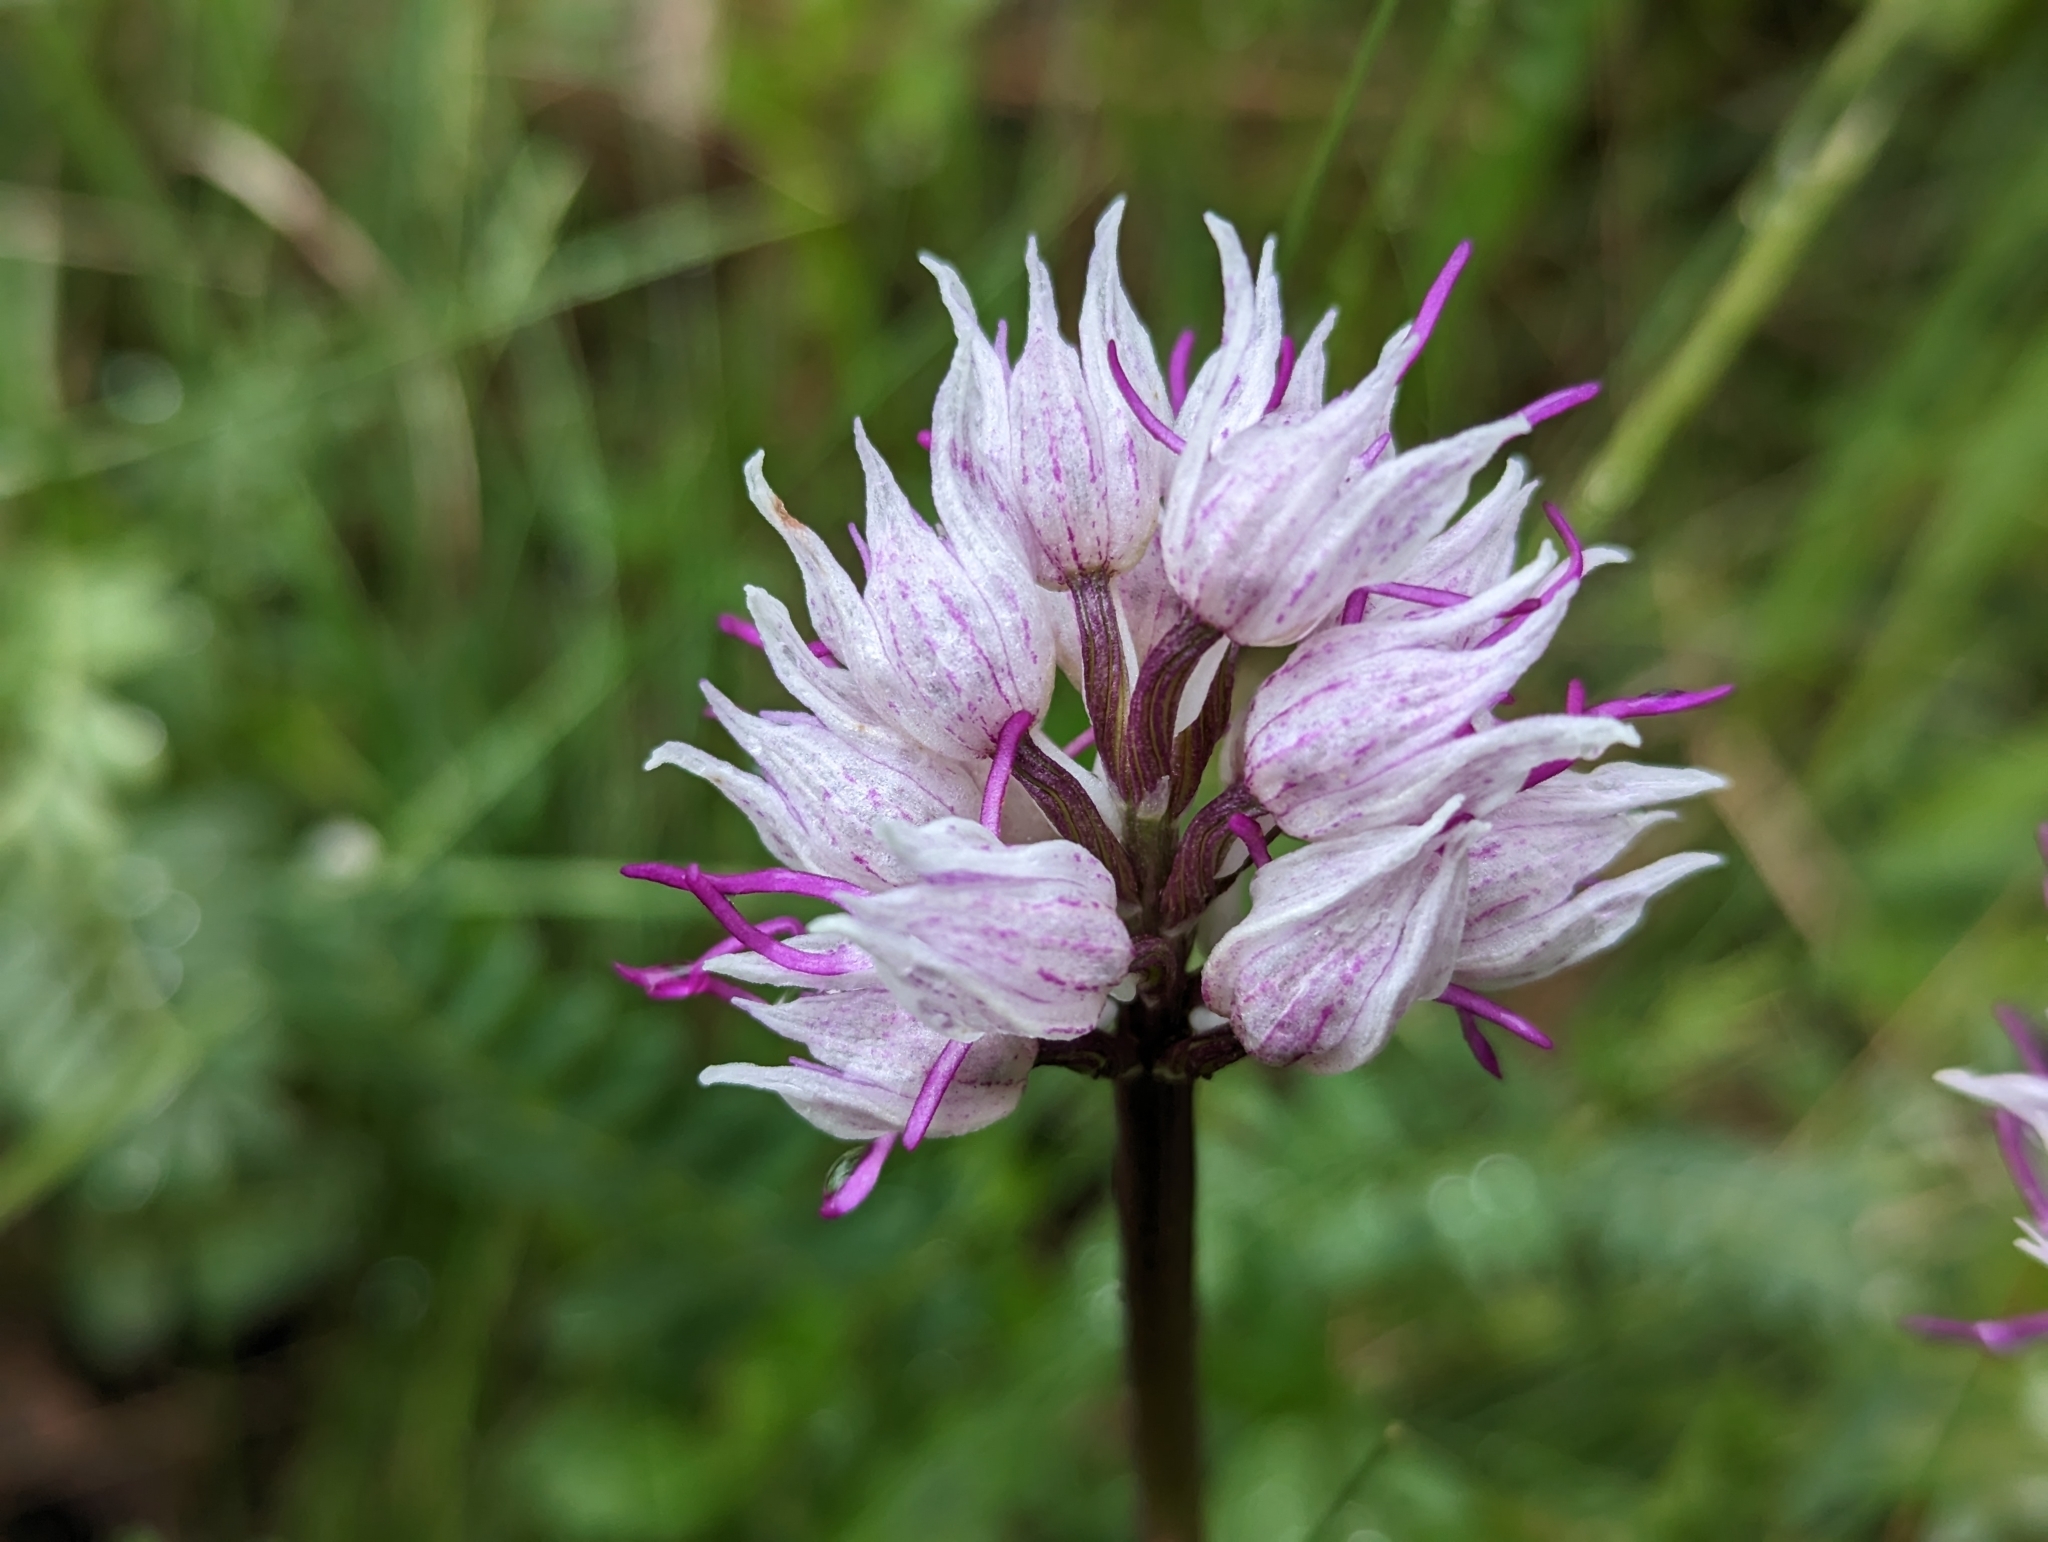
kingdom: Plantae
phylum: Tracheophyta
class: Liliopsida
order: Asparagales
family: Orchidaceae
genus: Orchis
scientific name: Orchis simia
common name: Monkey orchid
